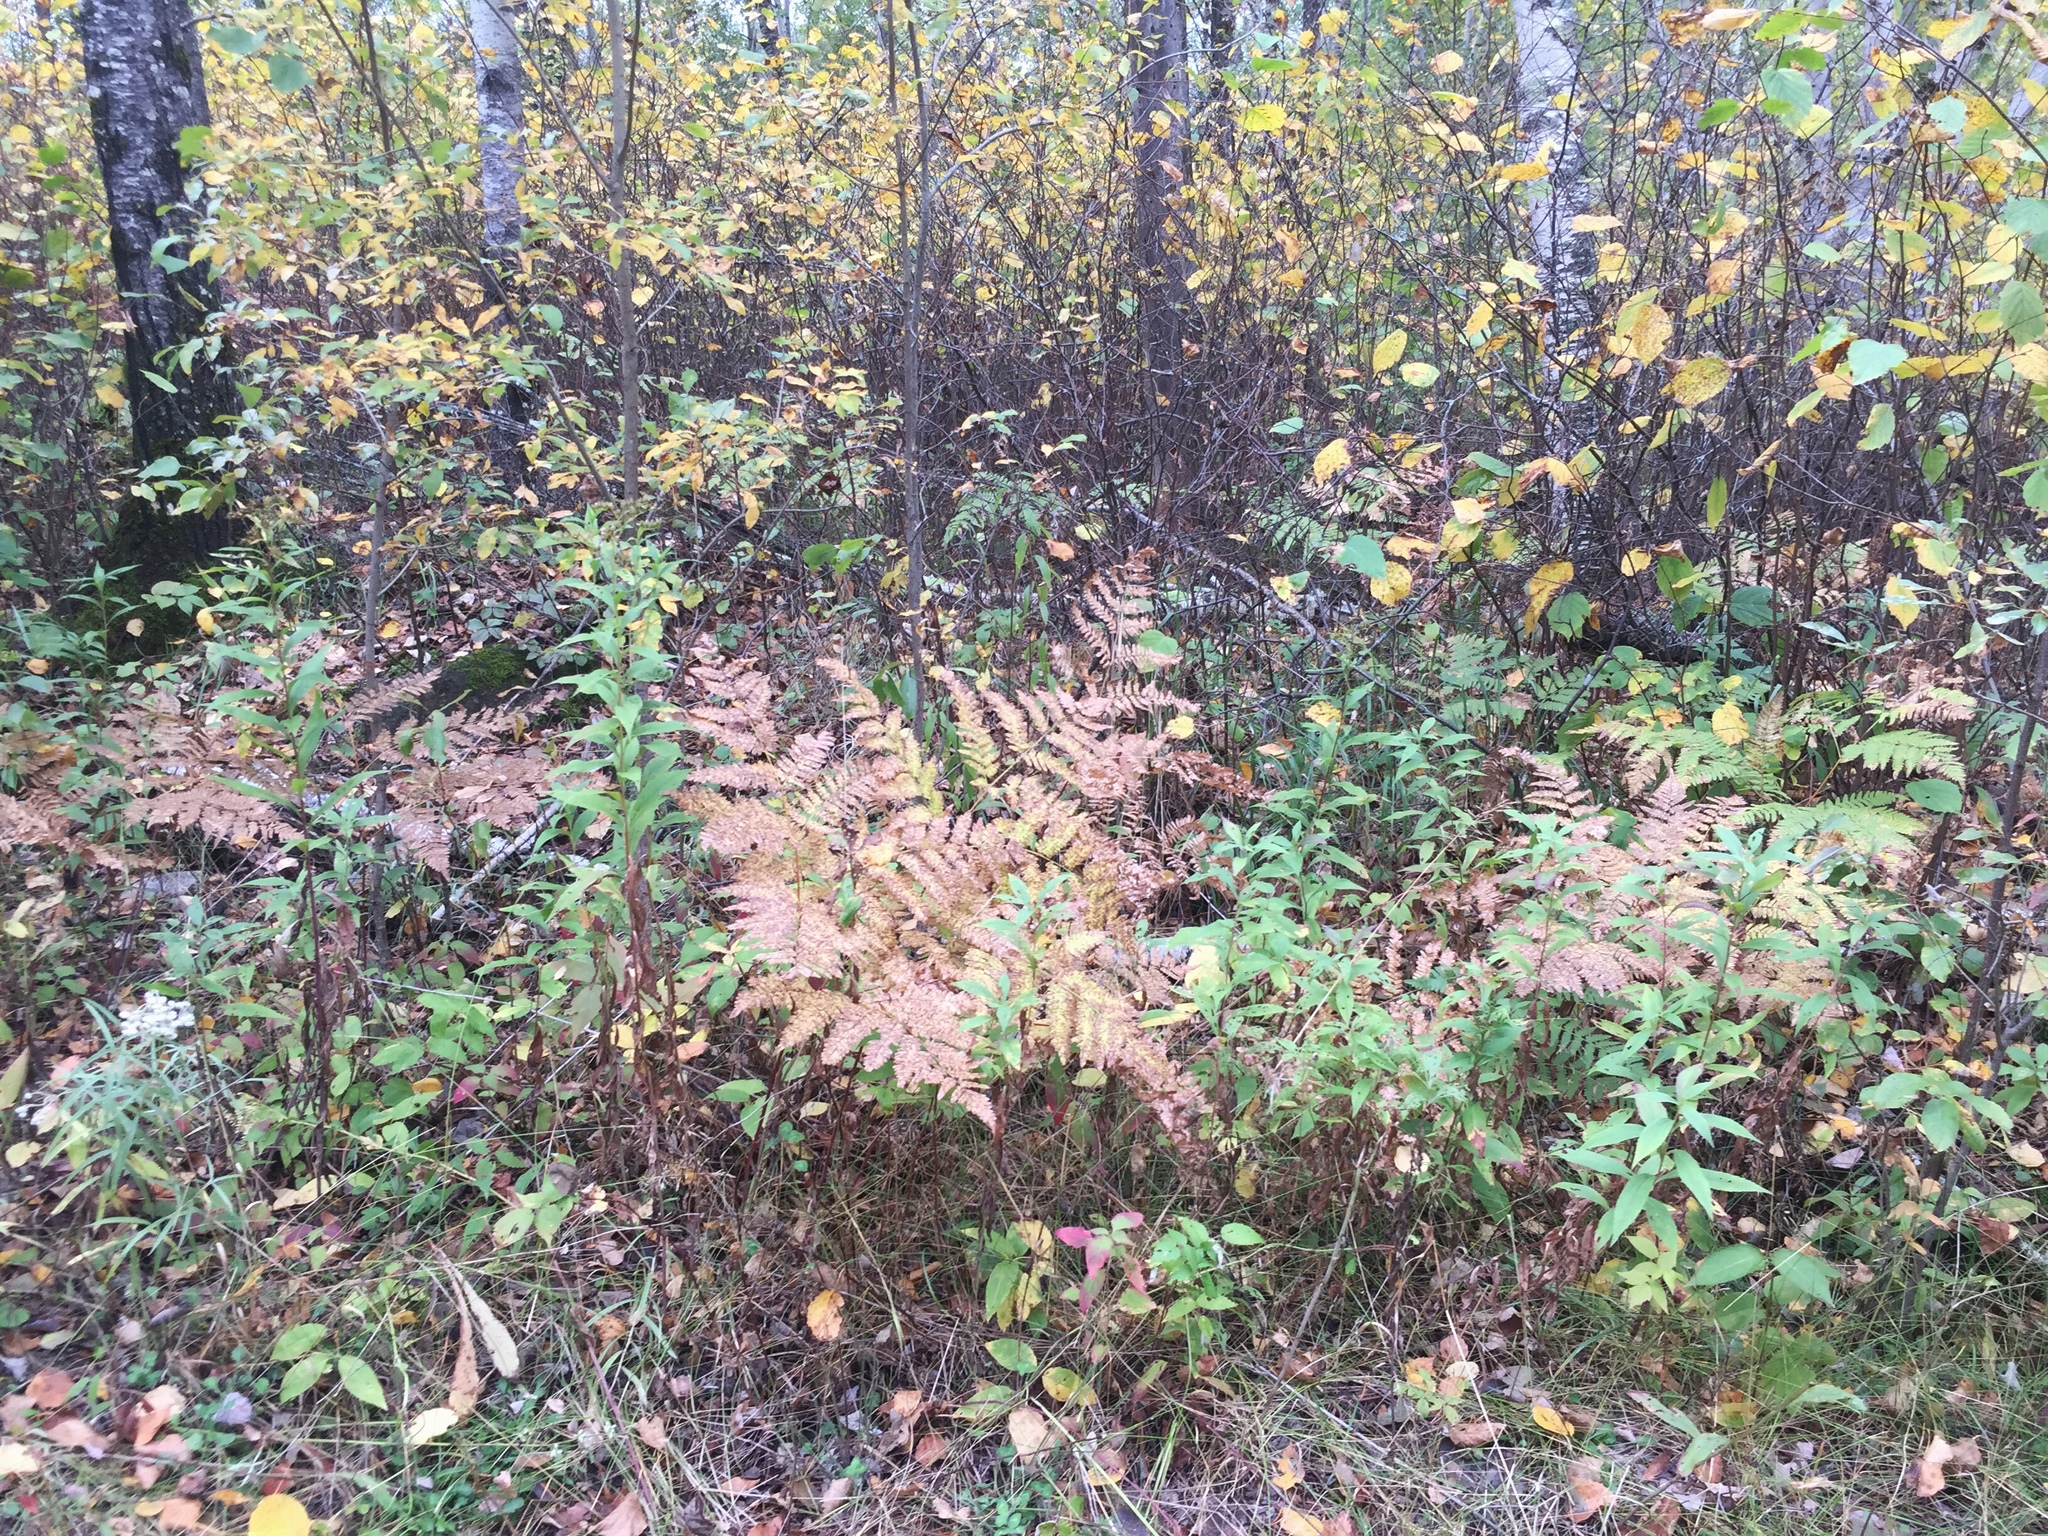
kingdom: Plantae
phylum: Tracheophyta
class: Polypodiopsida
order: Polypodiales
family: Dennstaedtiaceae
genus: Pteridium
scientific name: Pteridium aquilinum
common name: Bracken
